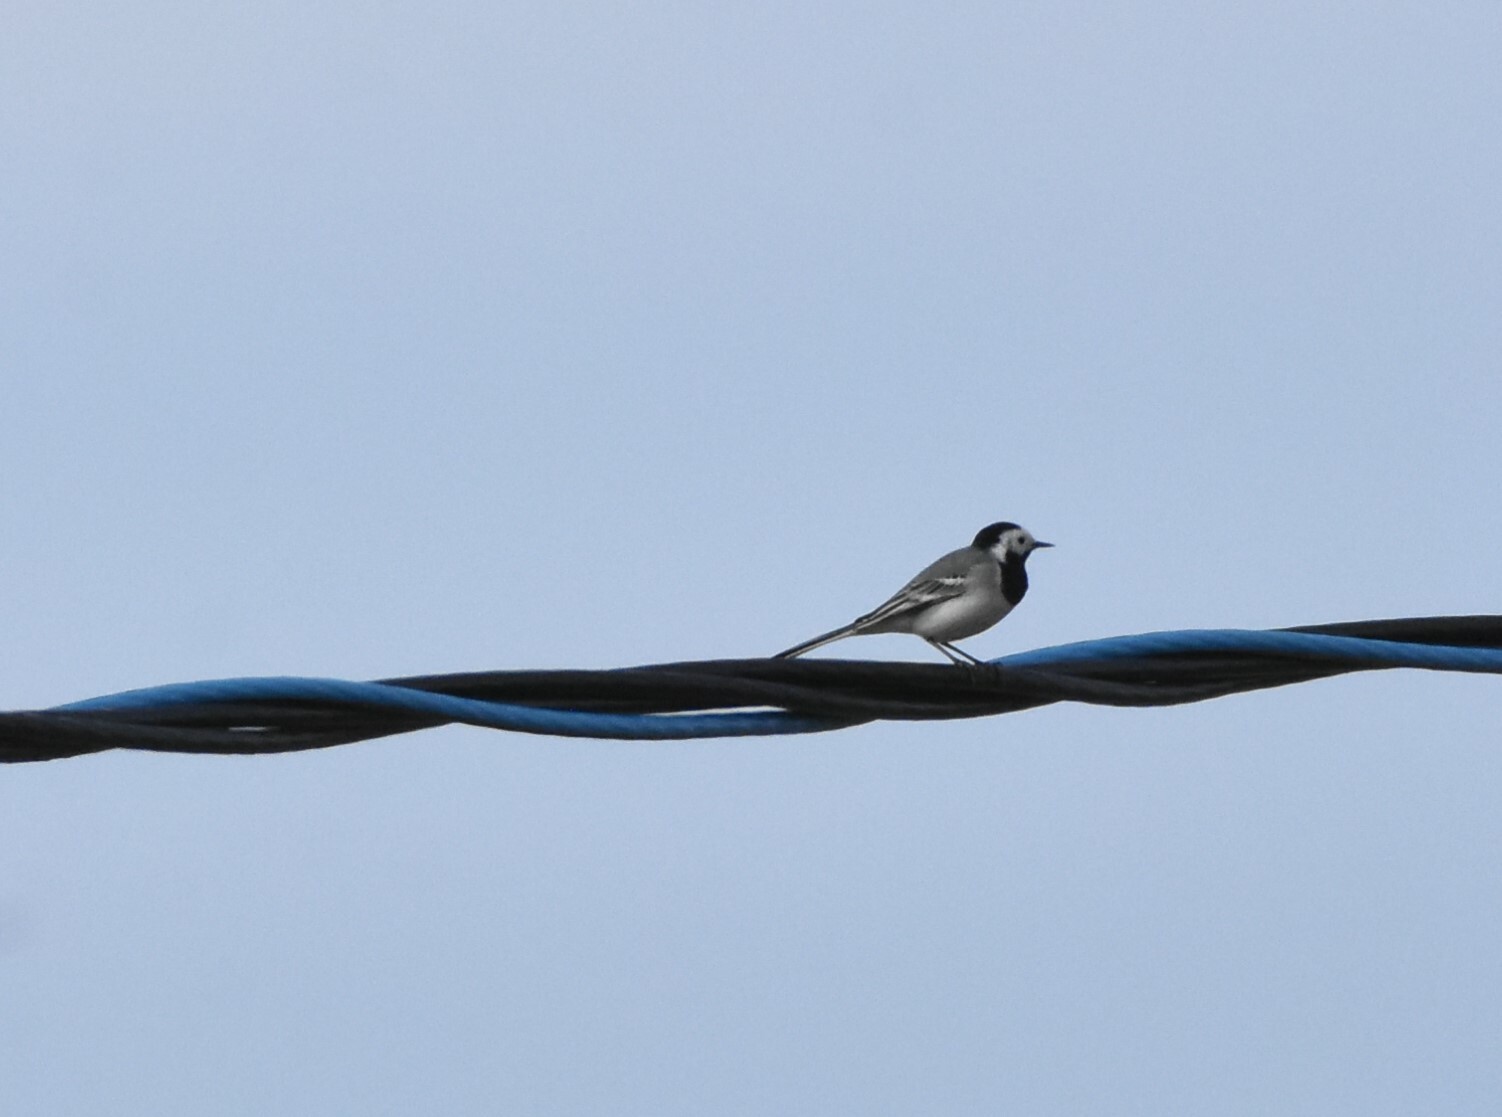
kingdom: Animalia
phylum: Chordata
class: Aves
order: Passeriformes
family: Motacillidae
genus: Motacilla
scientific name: Motacilla alba
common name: White wagtail
